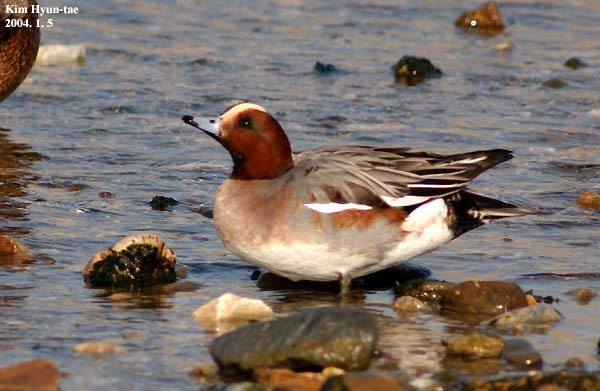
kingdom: Animalia
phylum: Chordata
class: Aves
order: Anseriformes
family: Anatidae
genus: Mareca
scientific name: Mareca penelope
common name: Eurasian wigeon
